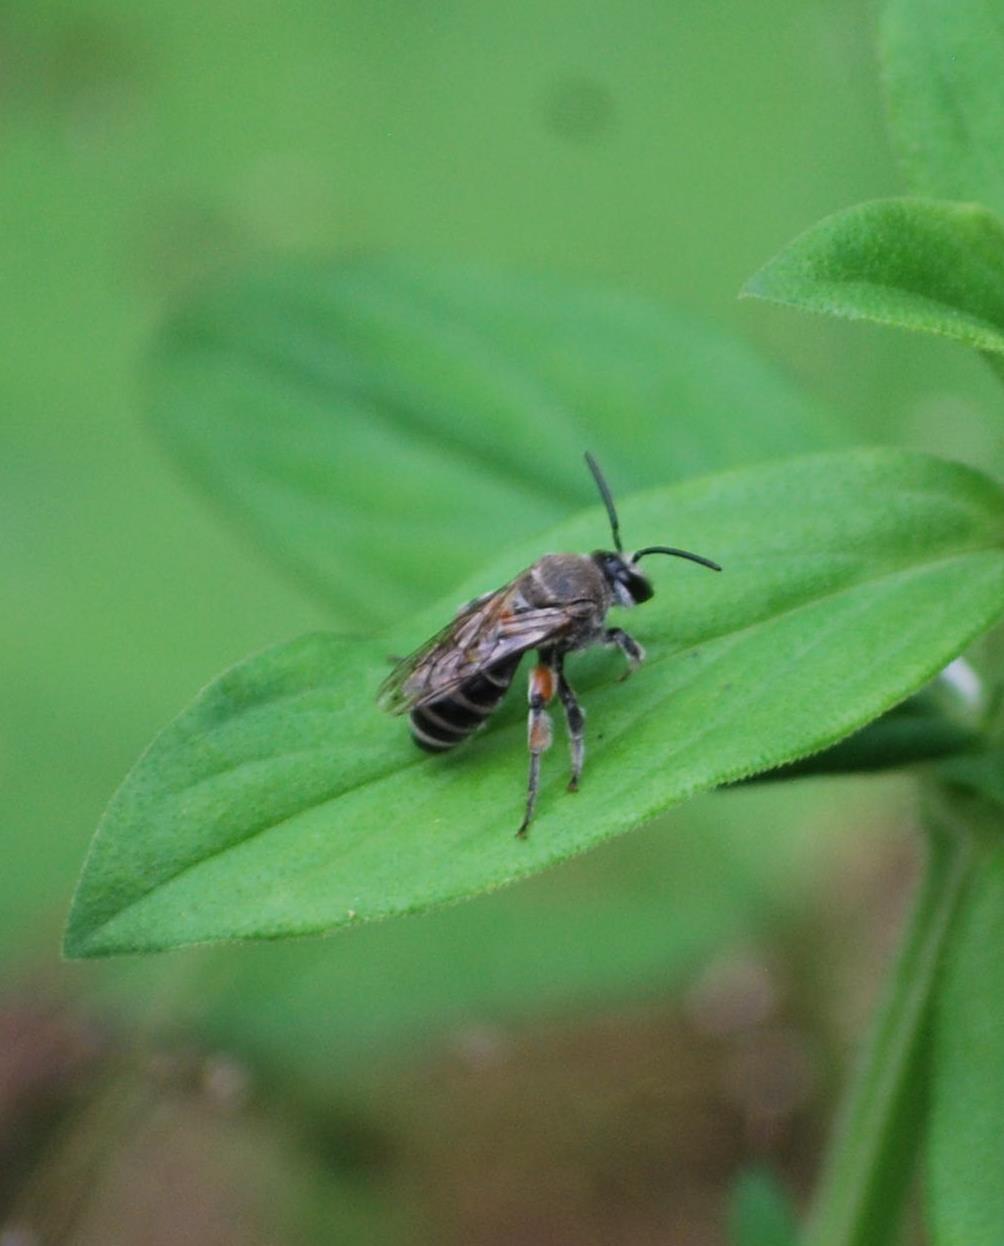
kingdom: Animalia
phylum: Arthropoda
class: Insecta
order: Hymenoptera
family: Halictidae
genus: Nomia
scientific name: Nomia westwoodi
